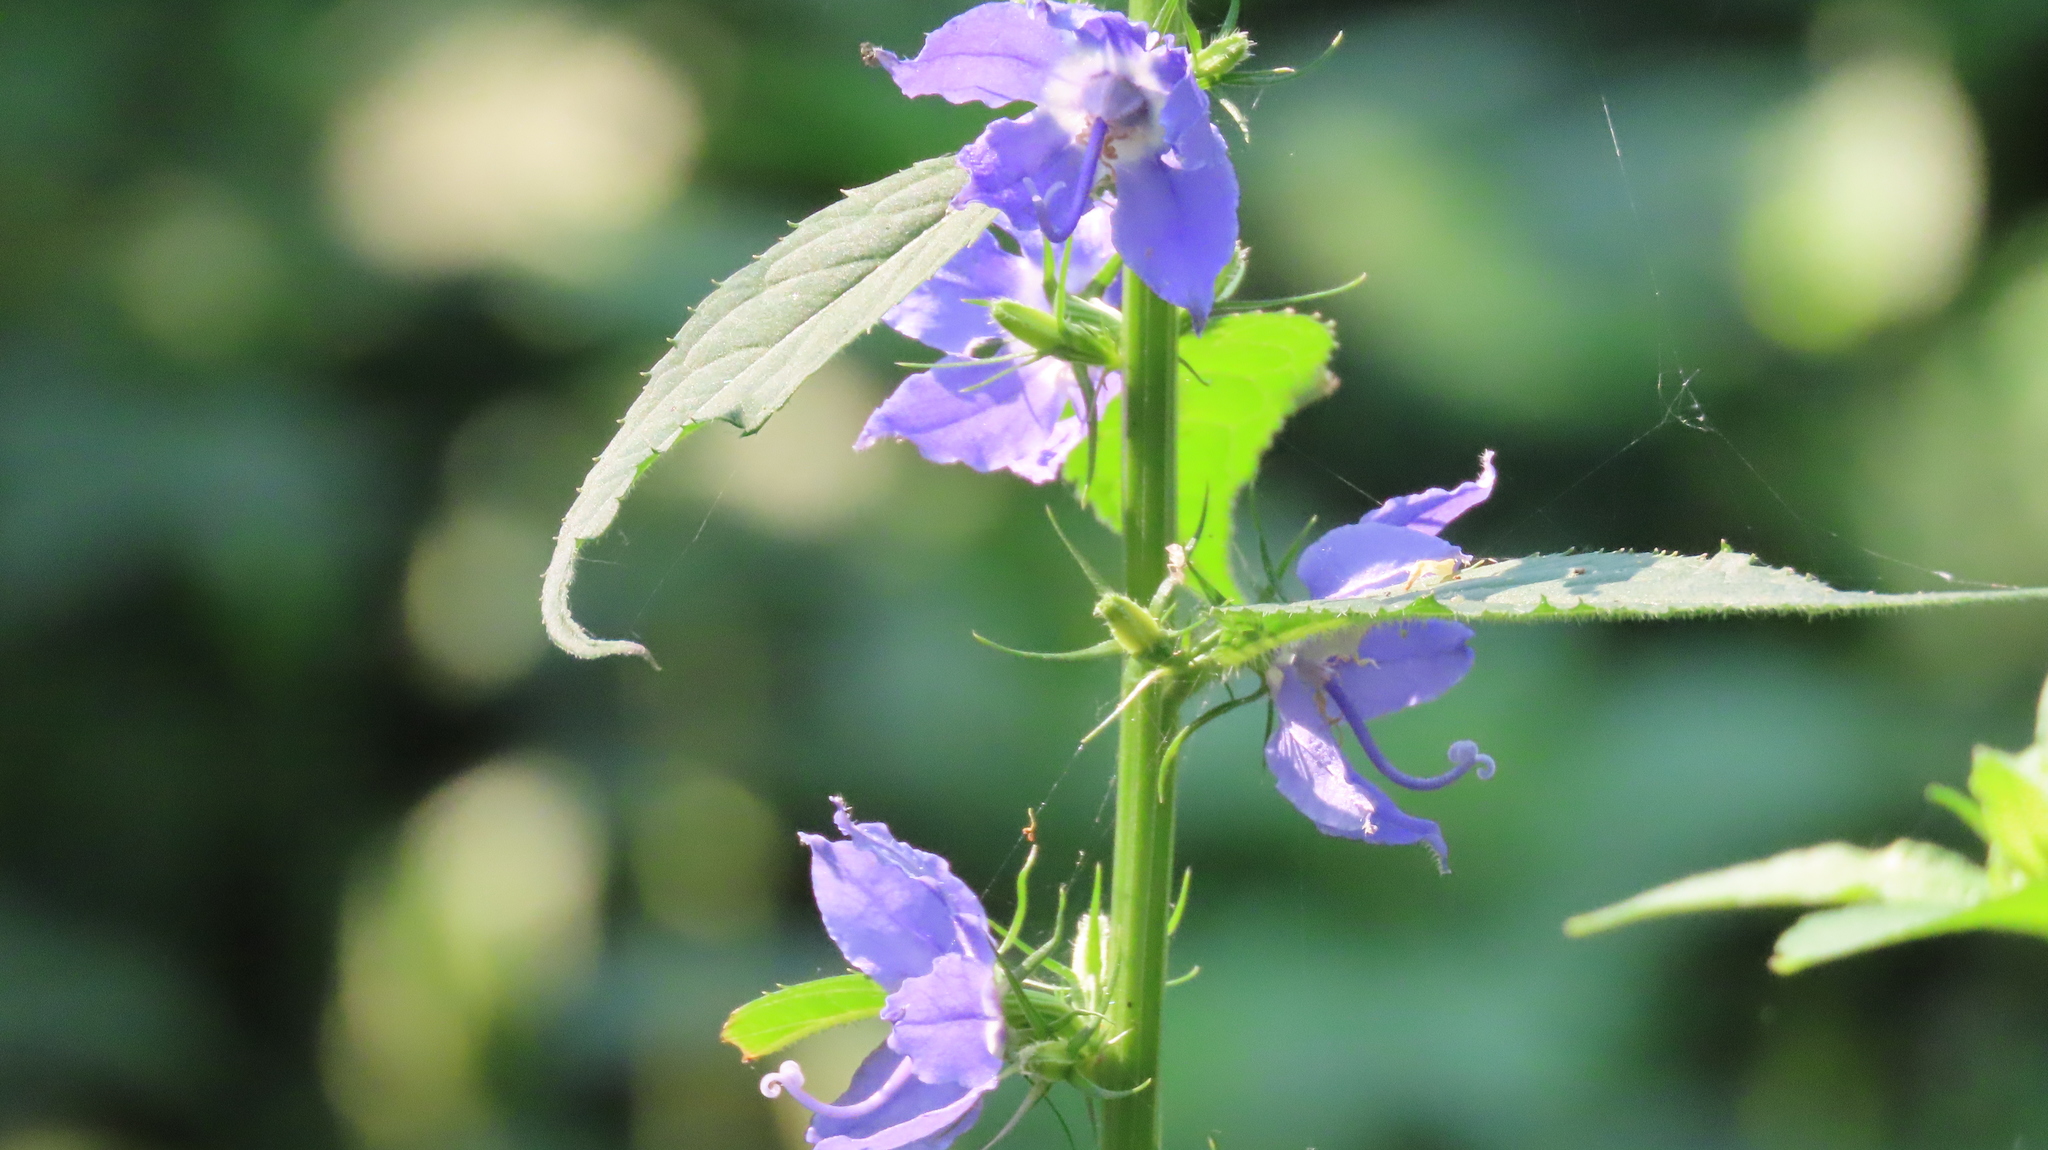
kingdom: Plantae
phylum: Tracheophyta
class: Magnoliopsida
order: Asterales
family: Campanulaceae
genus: Campanulastrum
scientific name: Campanulastrum americanum
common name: American bellflower
